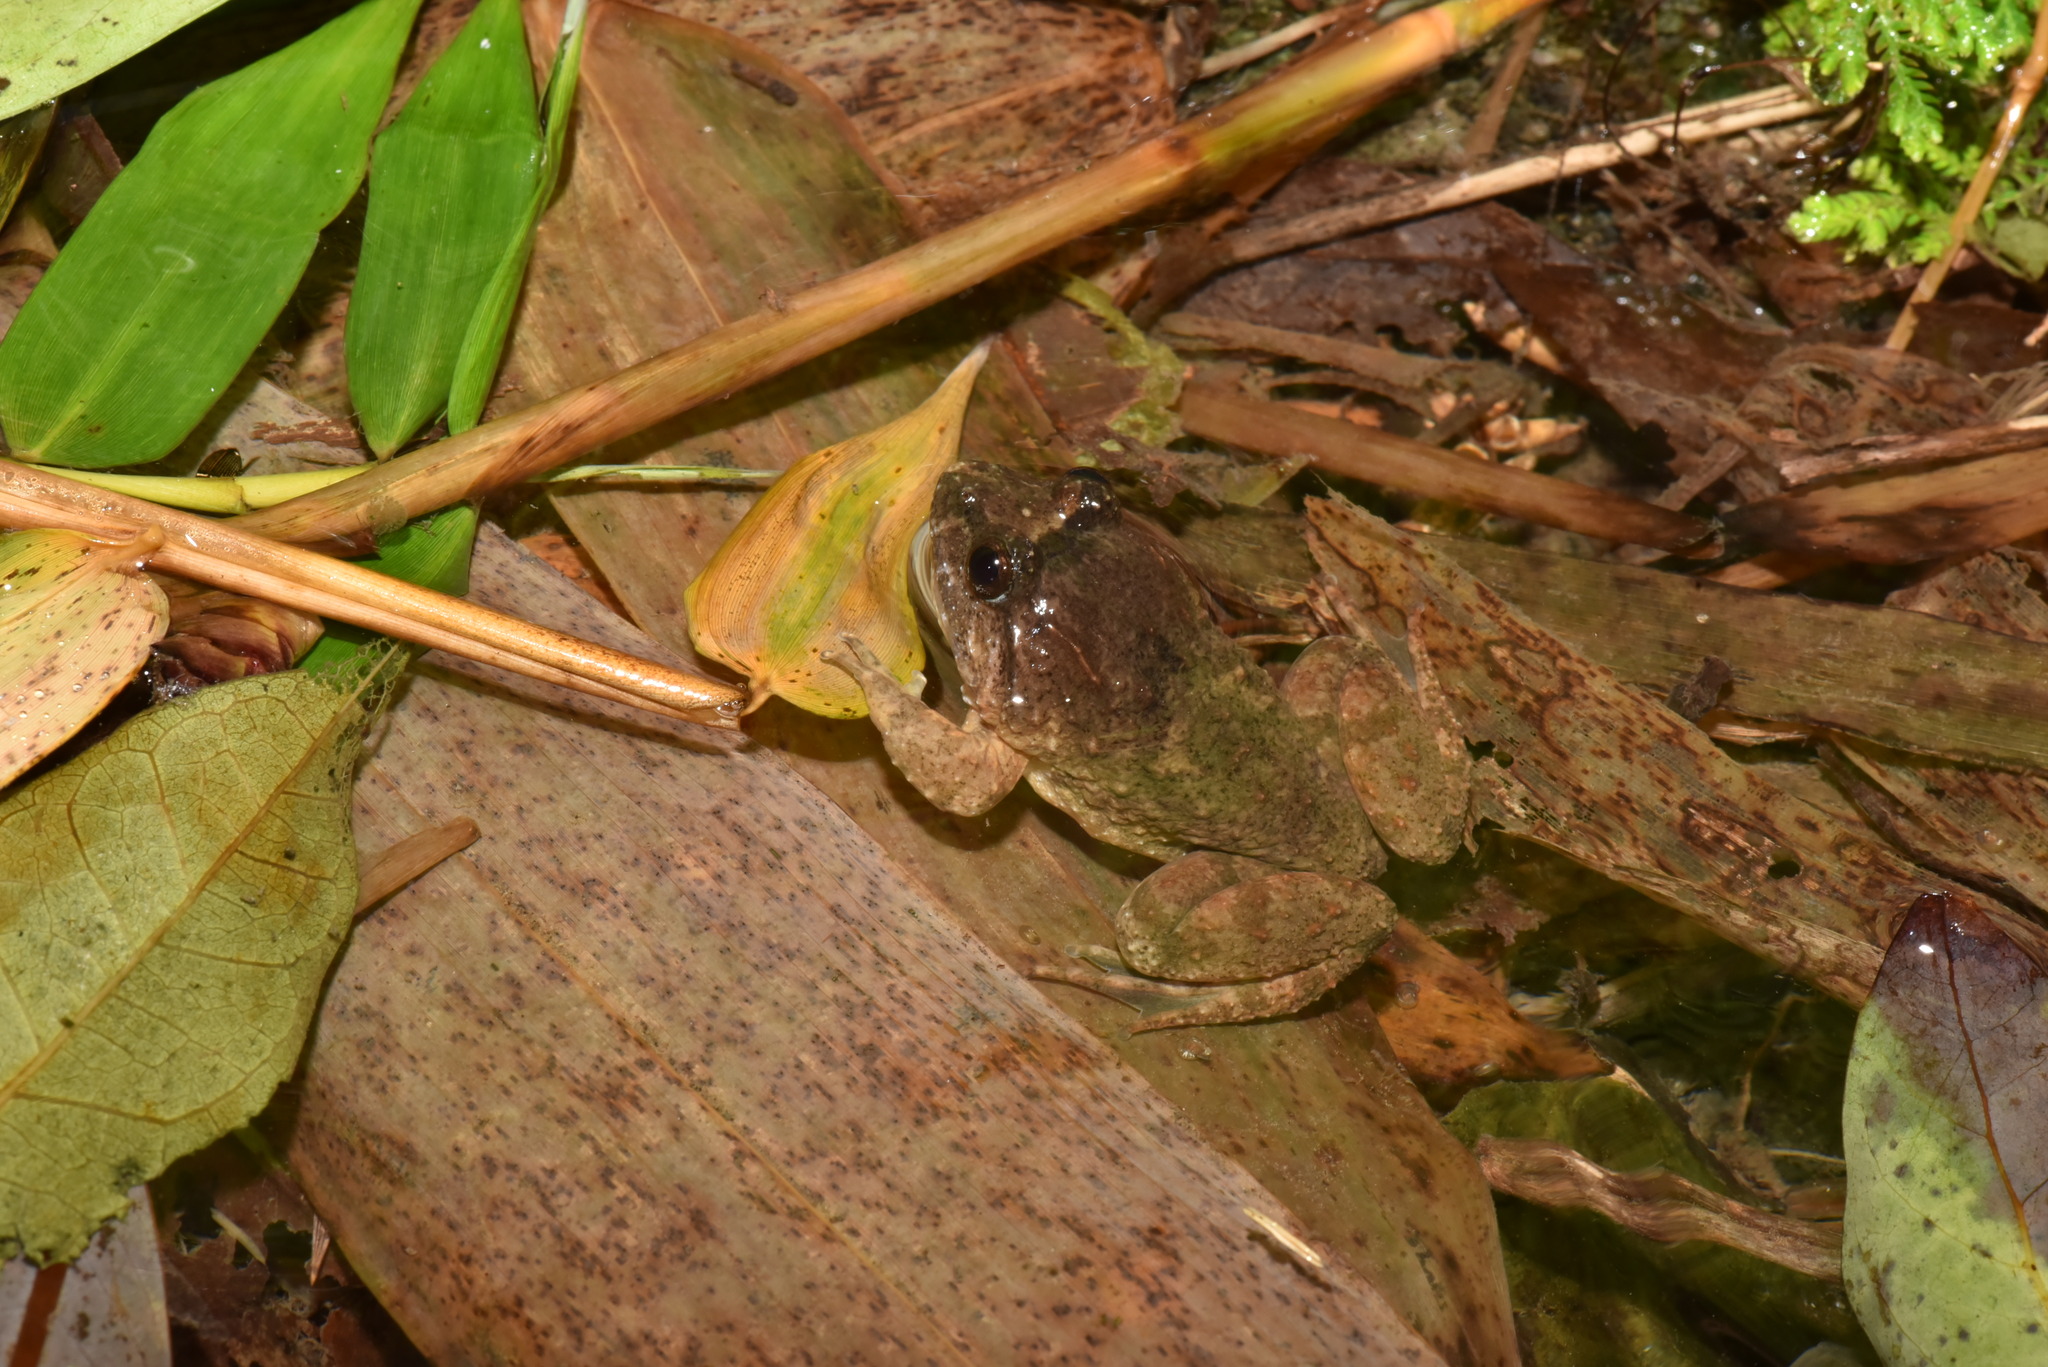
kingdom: Animalia
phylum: Chordata
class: Amphibia
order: Anura
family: Dicroglossidae
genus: Limnonectes
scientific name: Limnonectes fujianensis
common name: Fujian large-headed frog
